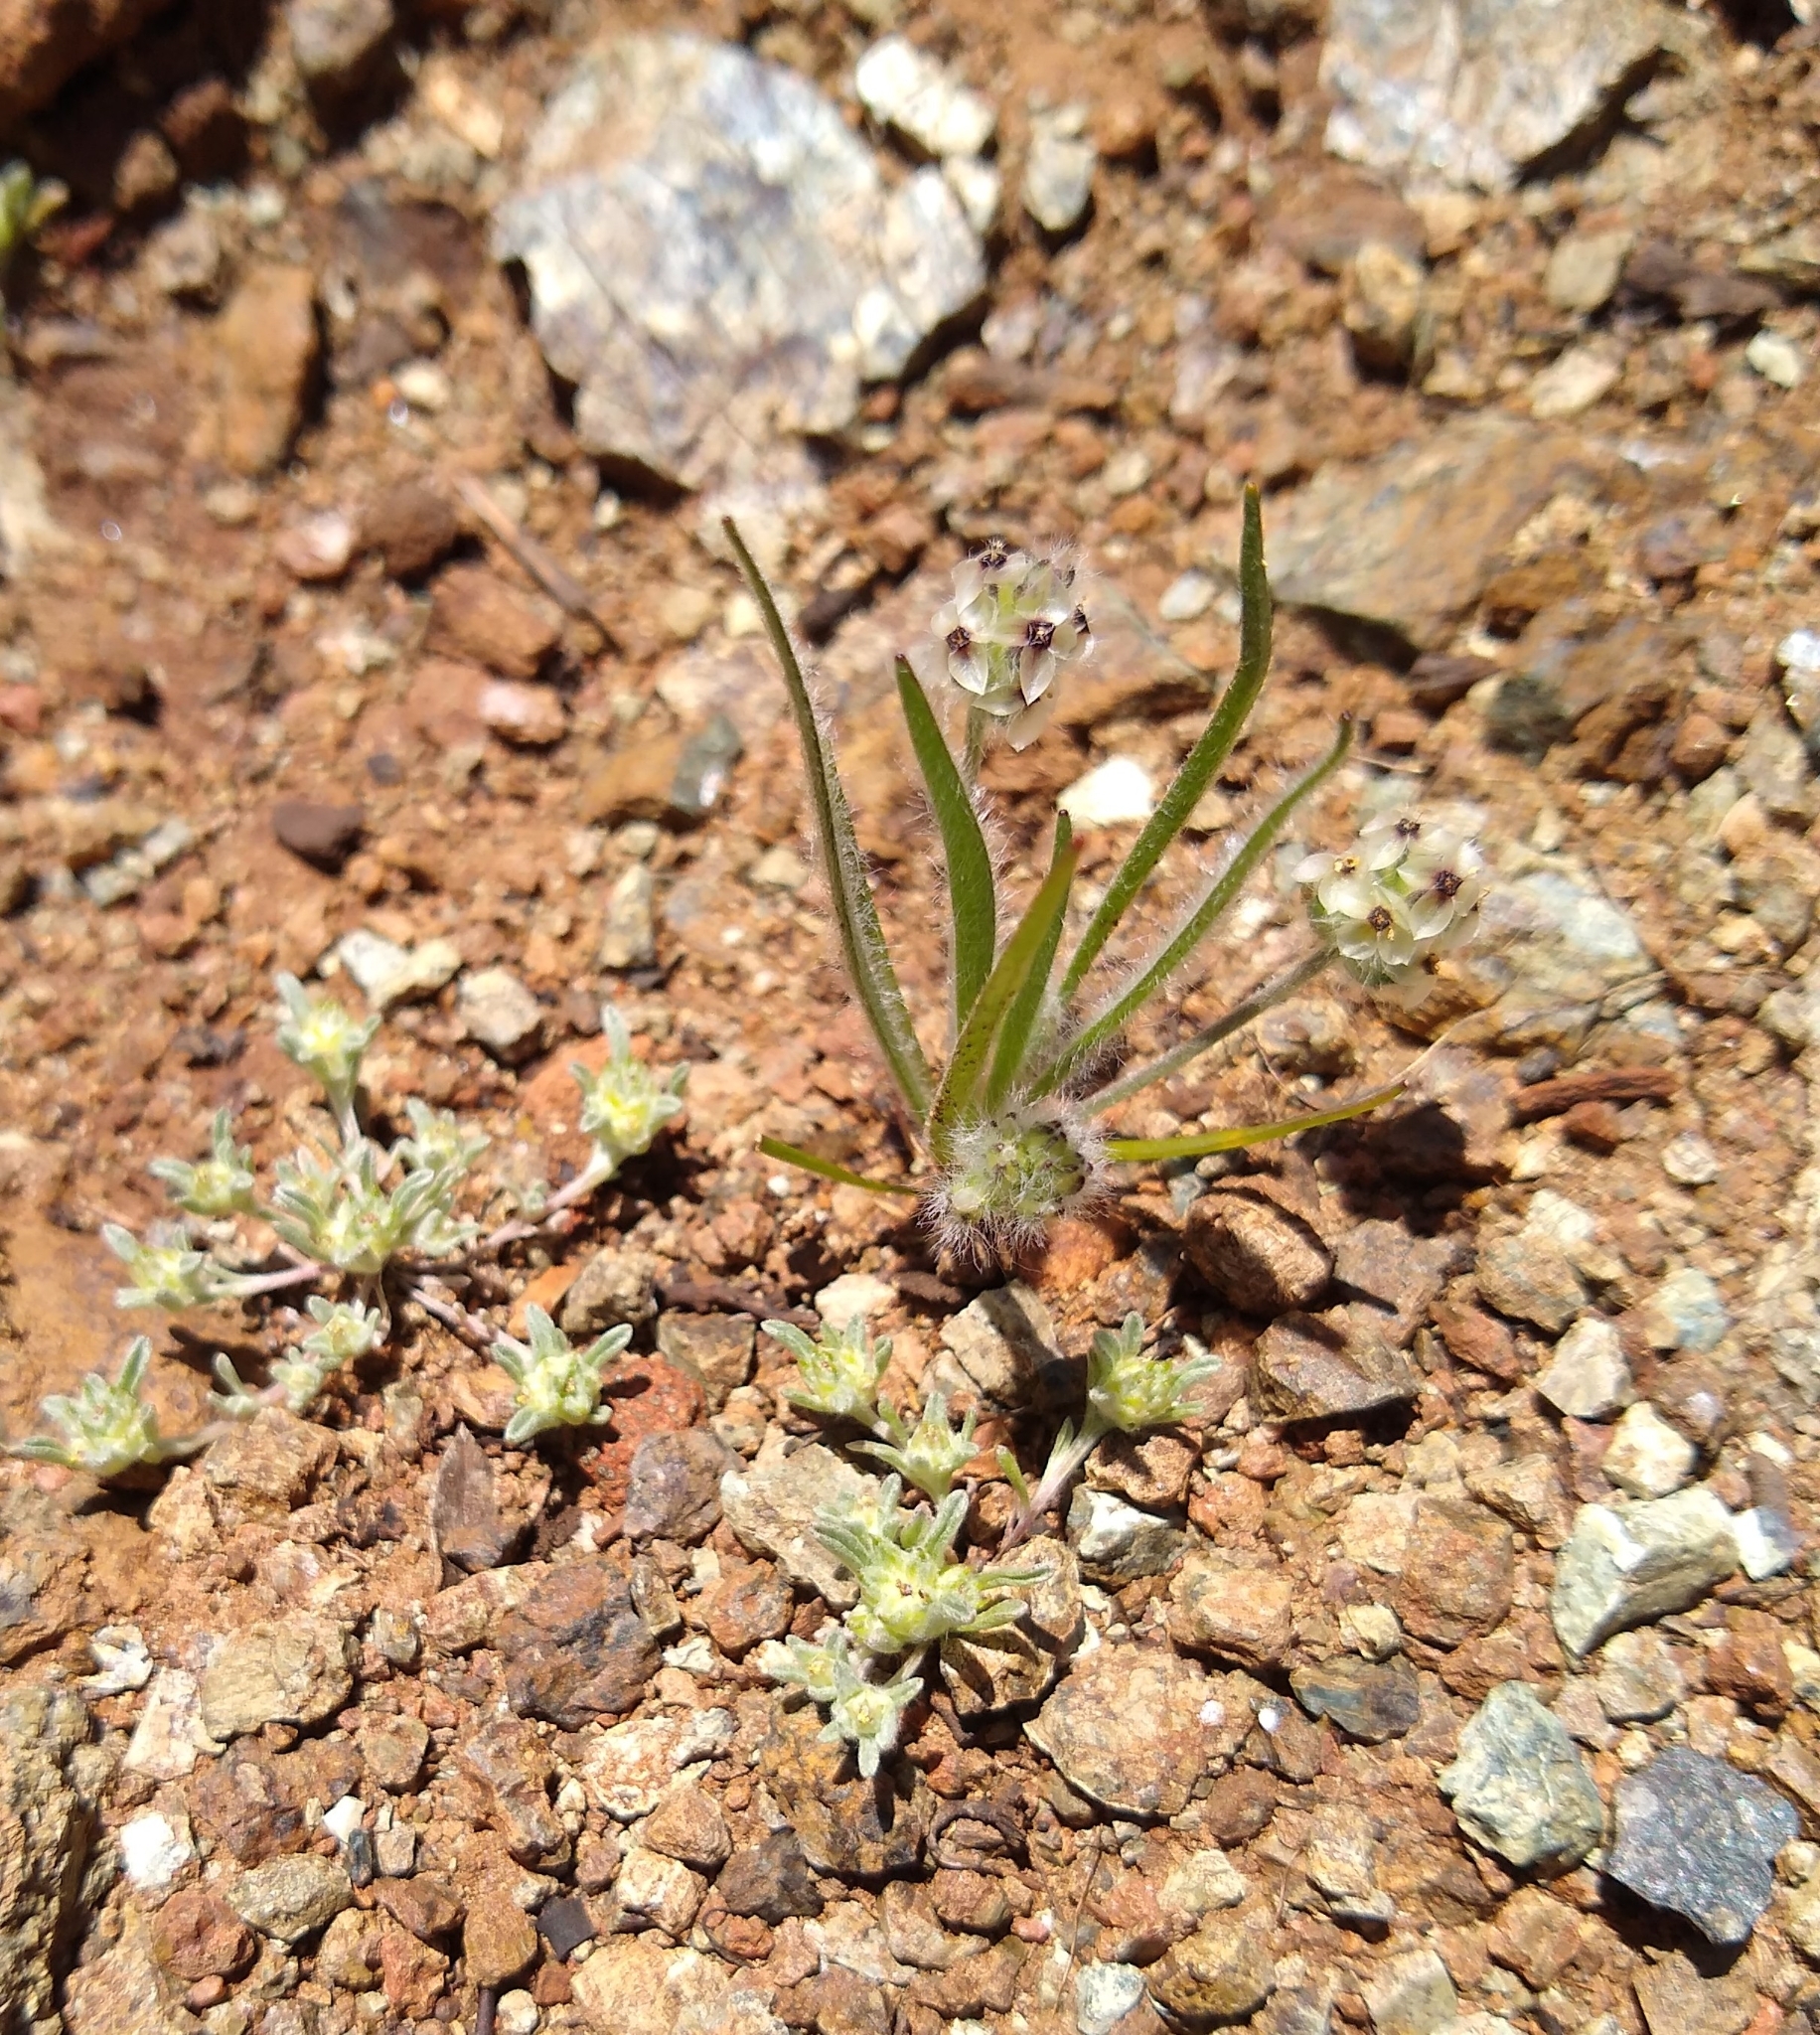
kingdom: Plantae
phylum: Tracheophyta
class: Magnoliopsida
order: Lamiales
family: Plantaginaceae
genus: Plantago
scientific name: Plantago erecta
